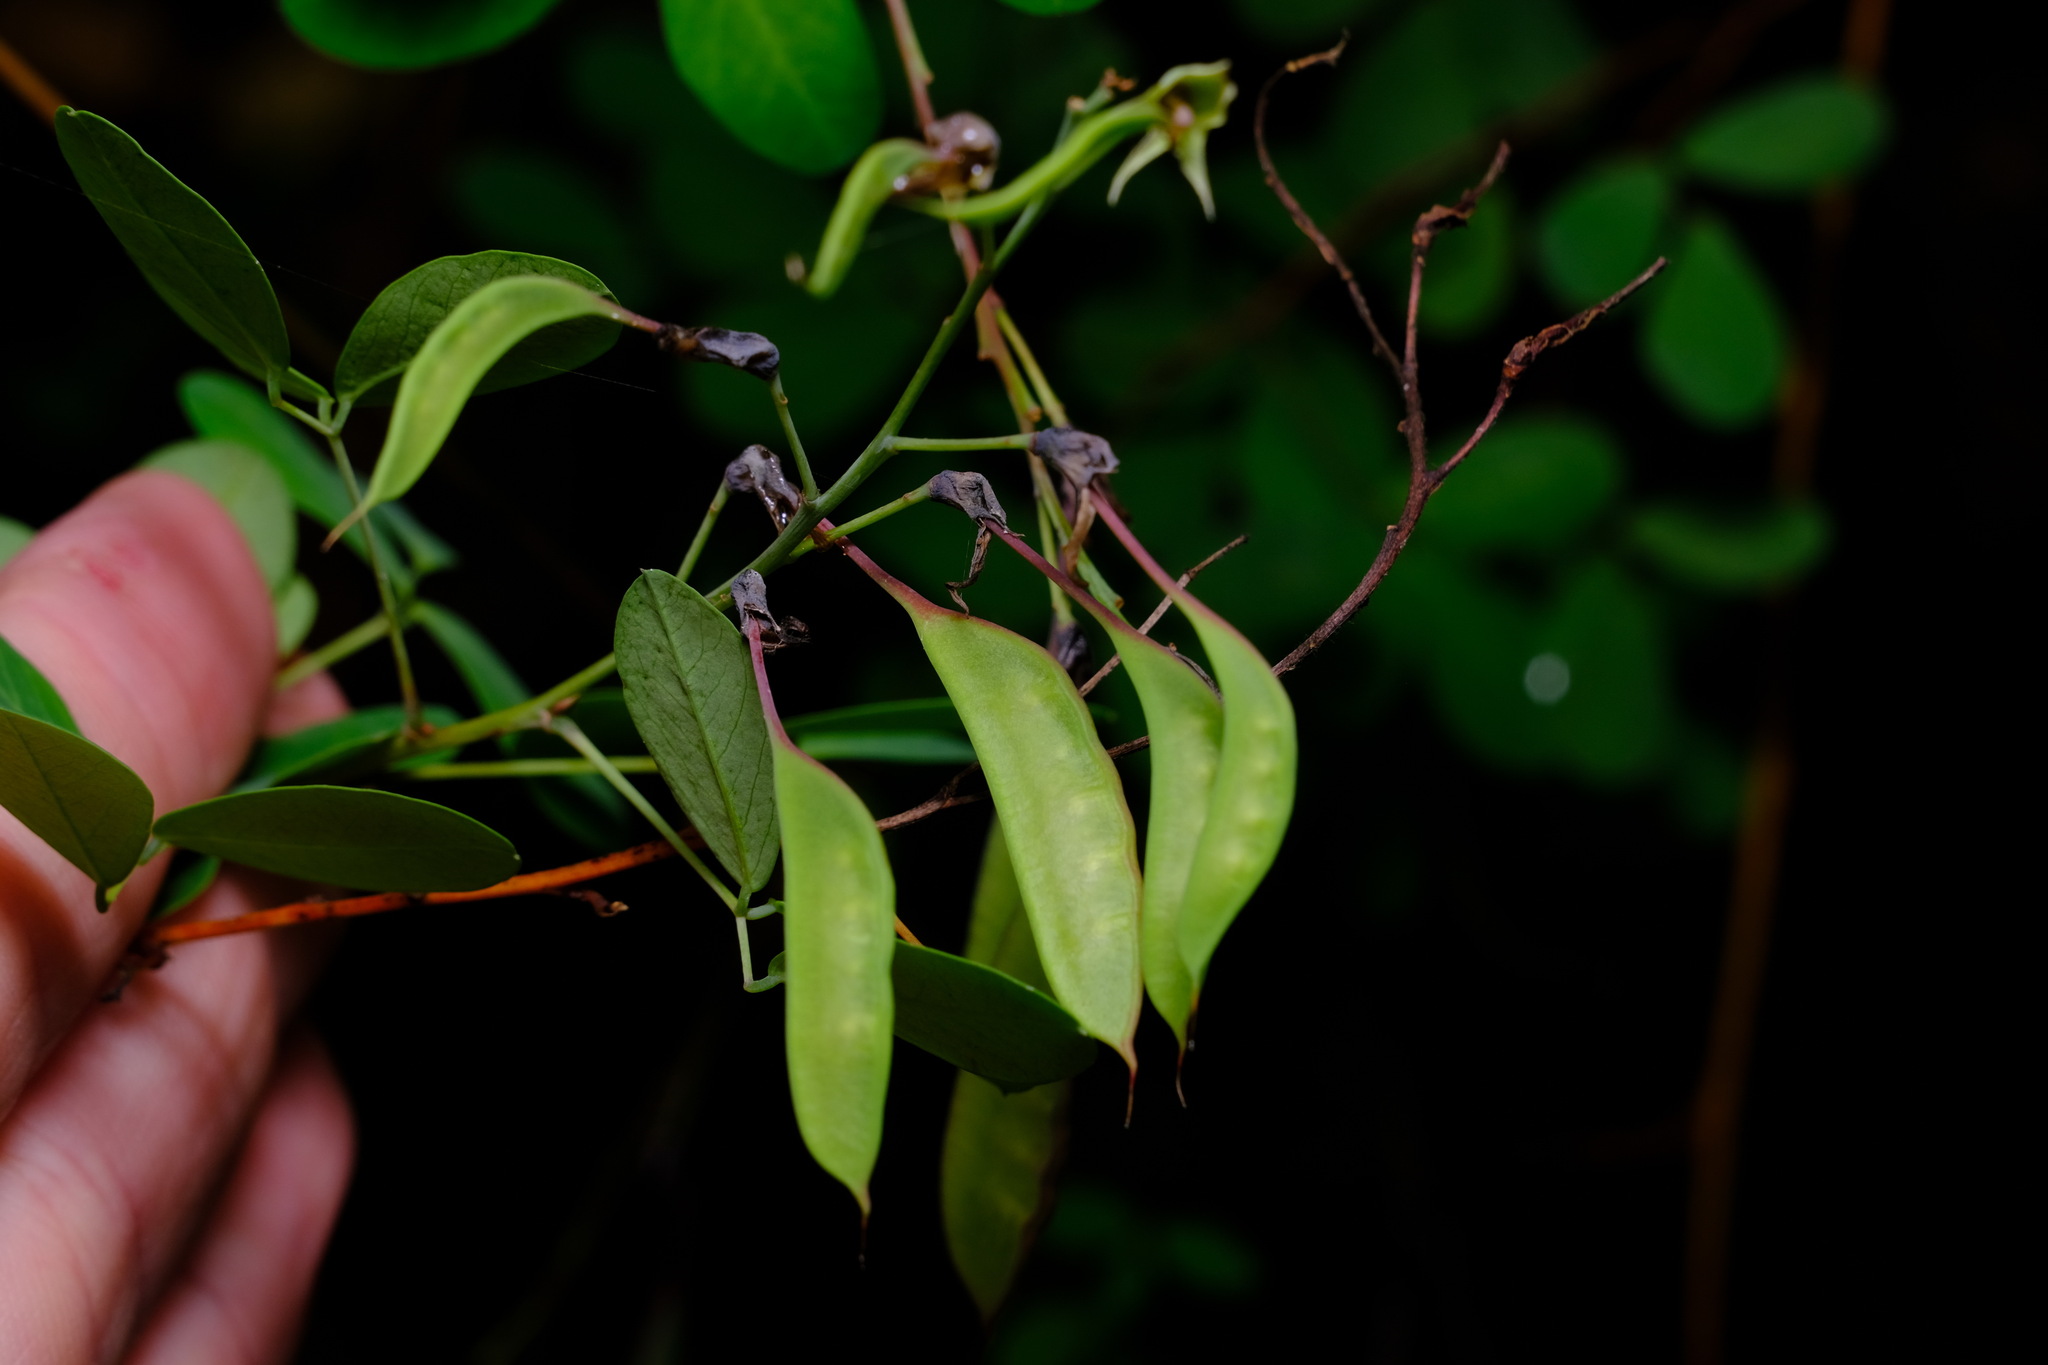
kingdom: Plantae
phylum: Tracheophyta
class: Magnoliopsida
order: Fabales
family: Fabaceae
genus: Goodia
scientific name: Goodia lotifolia
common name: Cloverleaf-poison
